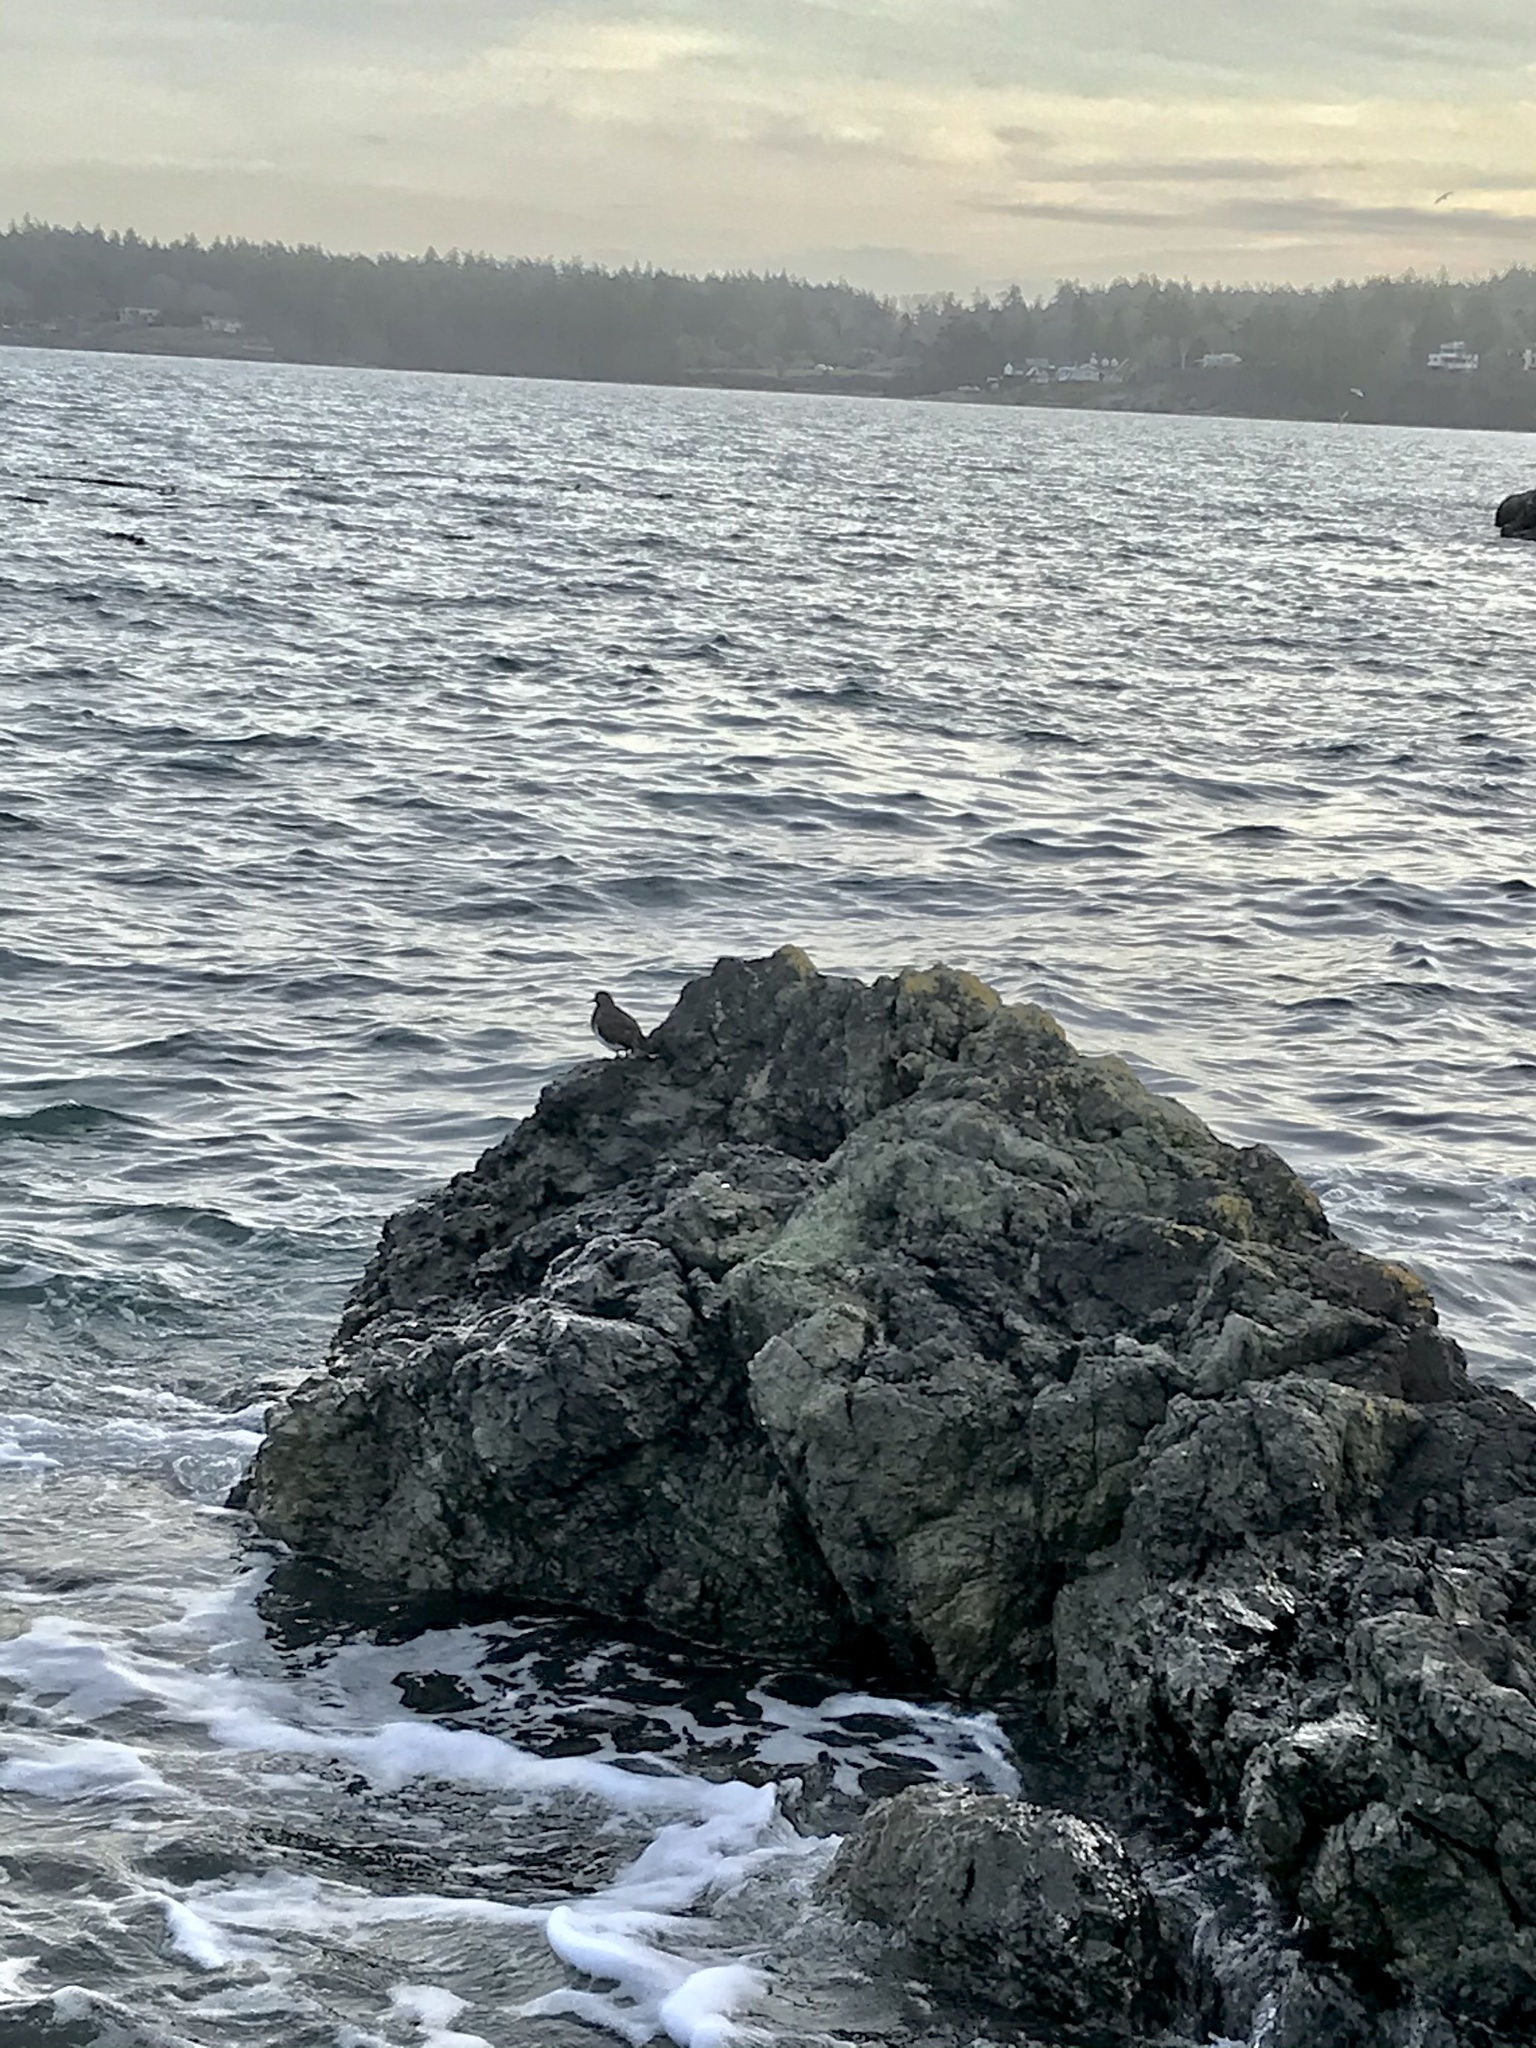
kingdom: Animalia
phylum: Chordata
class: Aves
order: Charadriiformes
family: Scolopacidae
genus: Arenaria
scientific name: Arenaria melanocephala
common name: Black turnstone
